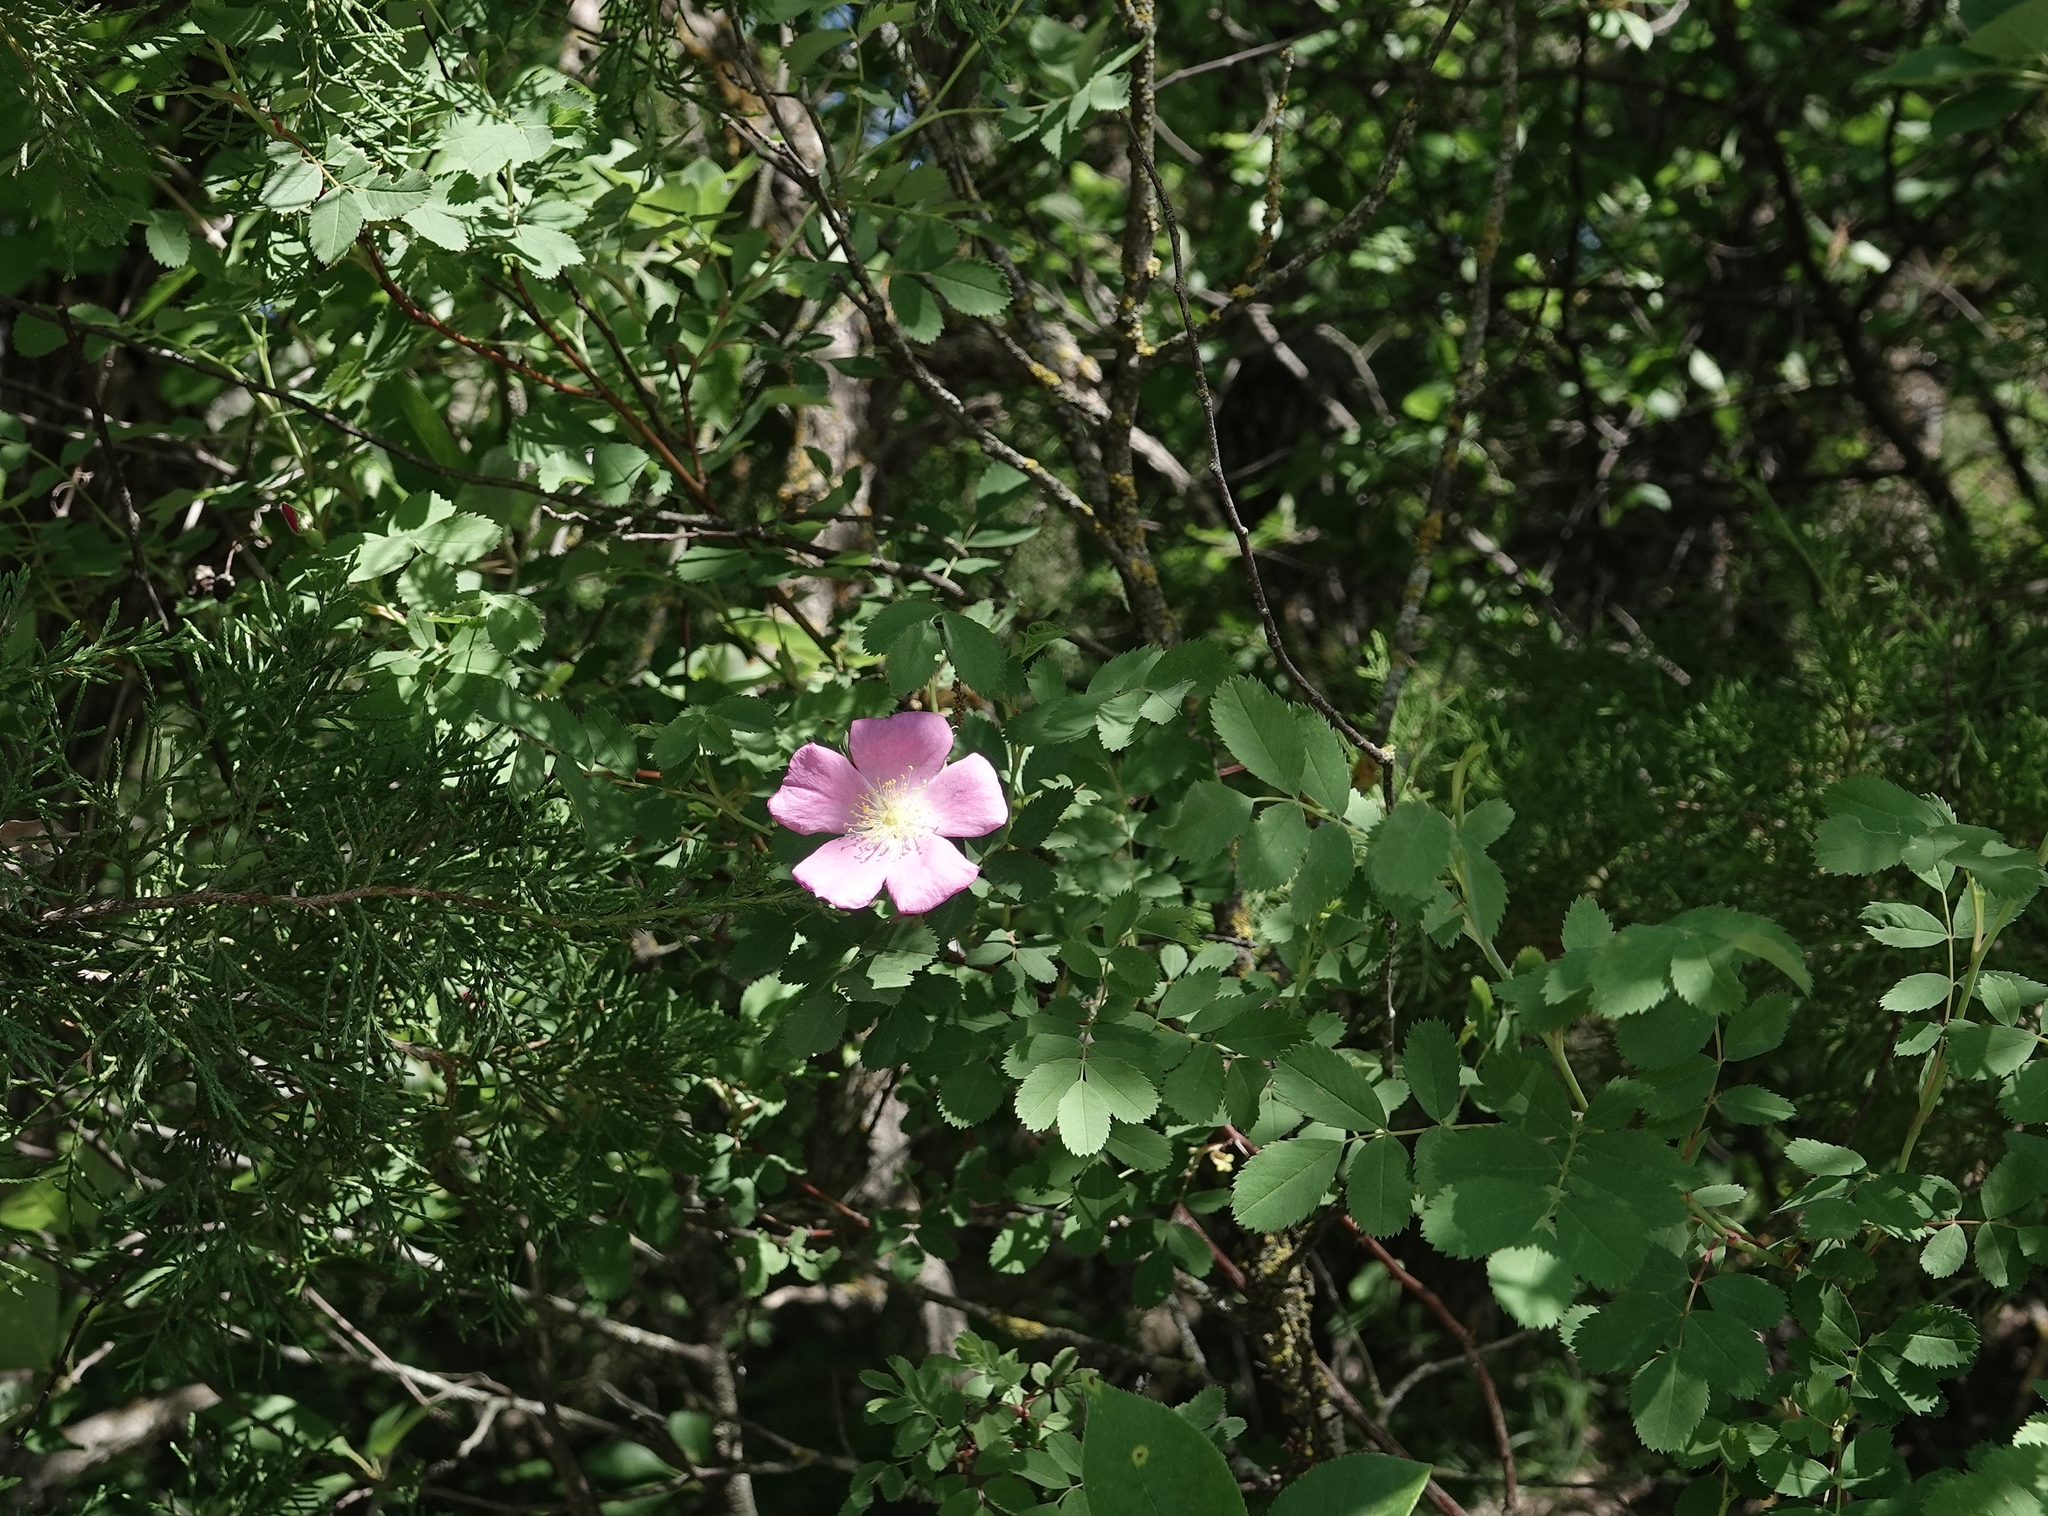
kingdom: Plantae
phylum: Tracheophyta
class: Magnoliopsida
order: Rosales
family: Rosaceae
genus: Rosa
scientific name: Rosa woodsii
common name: Woods's rose
